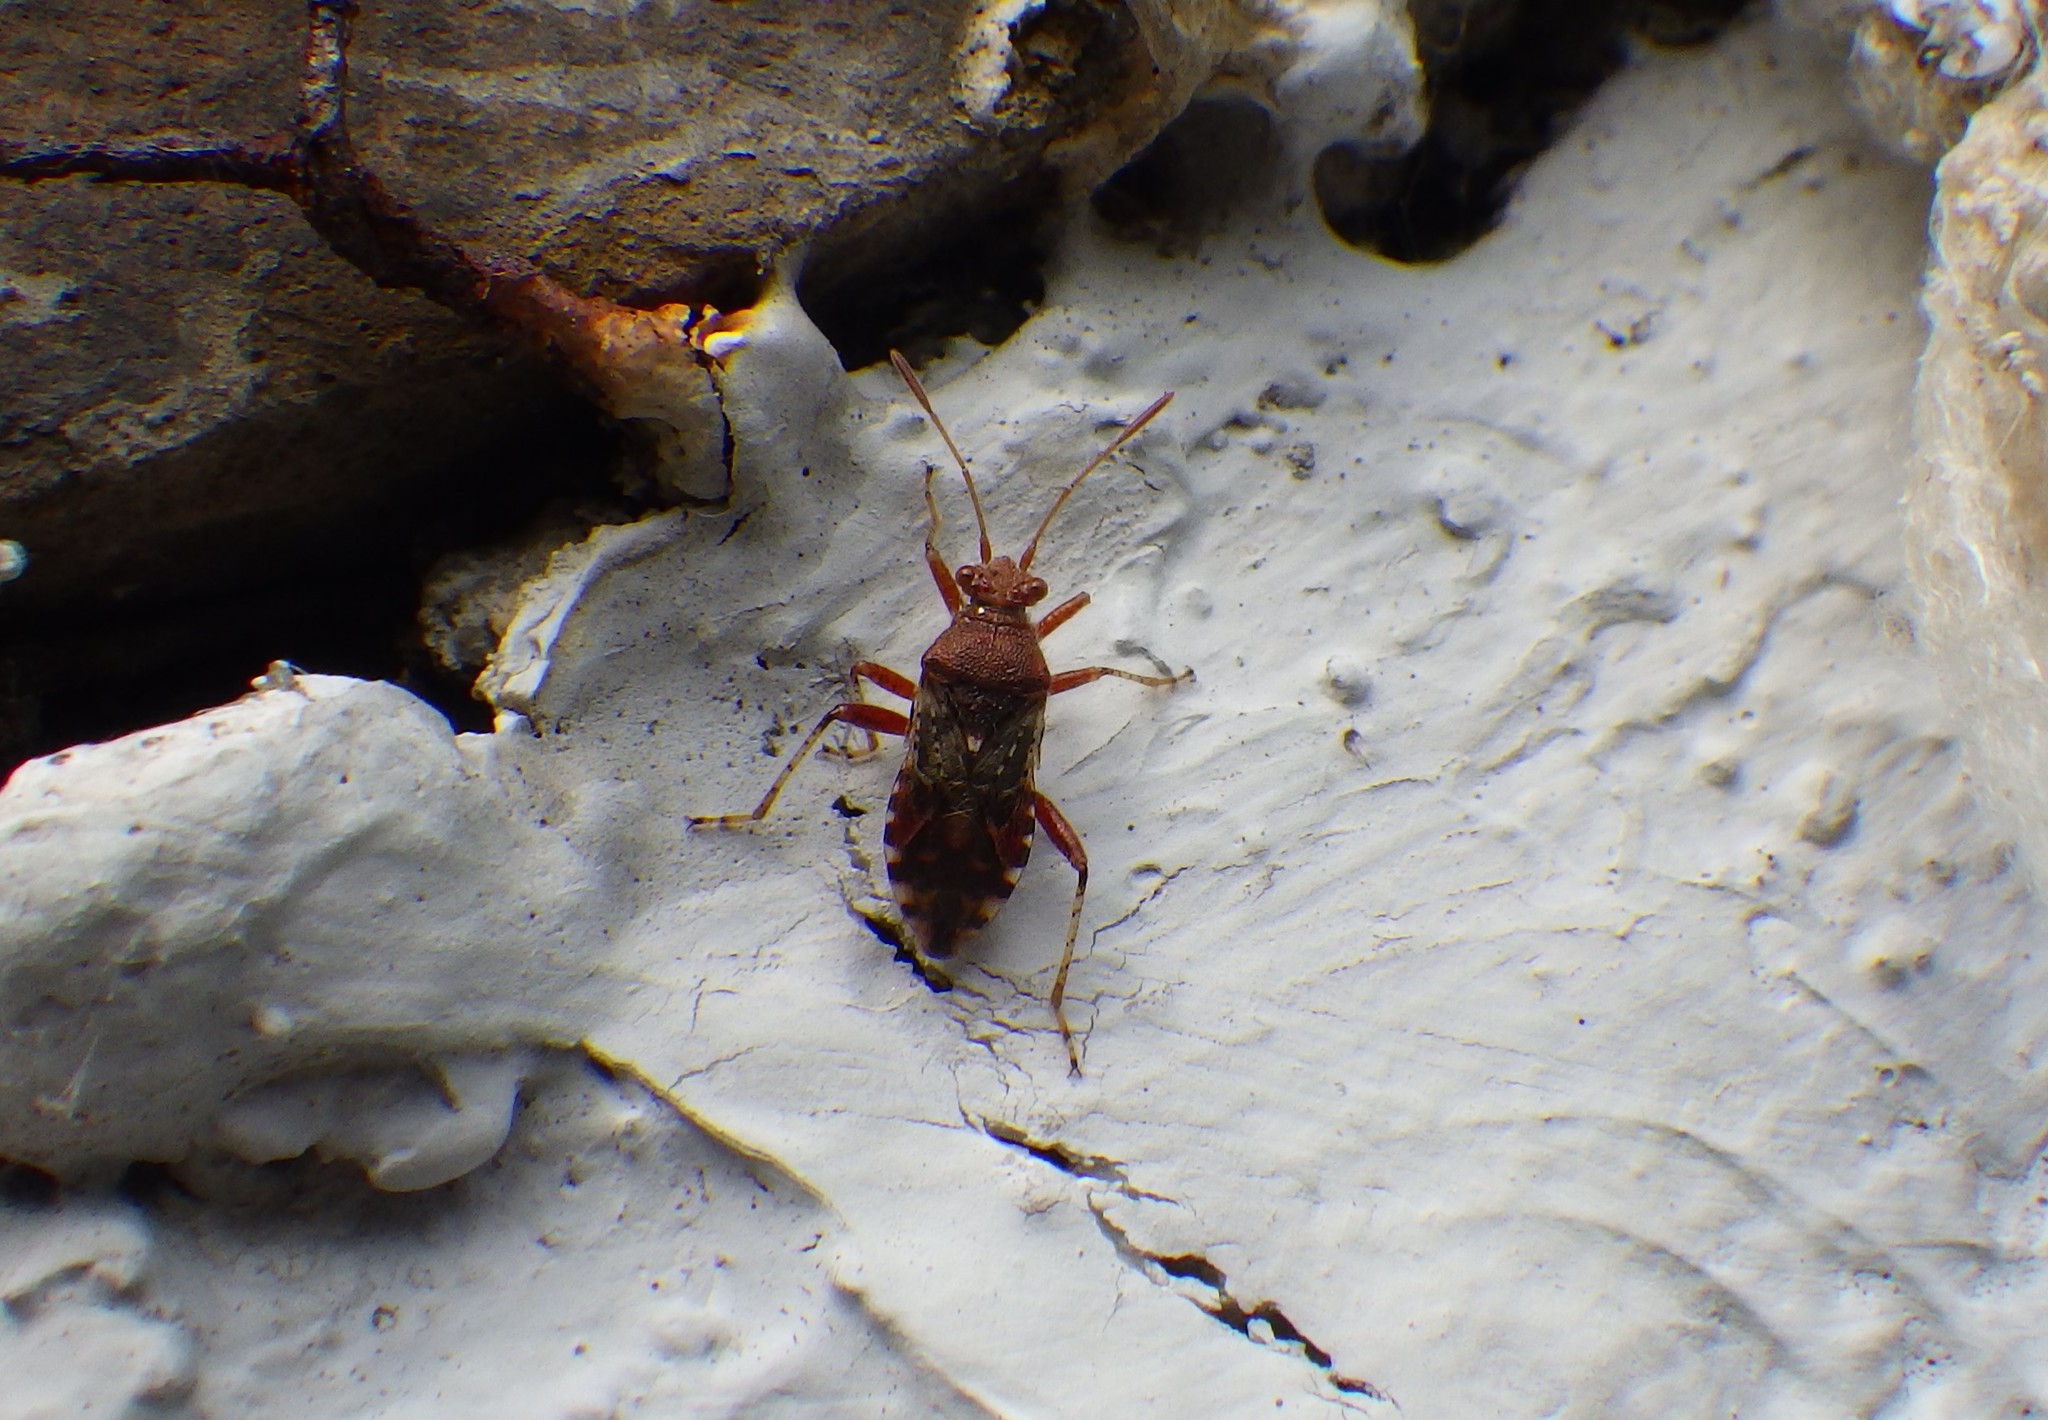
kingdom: Animalia
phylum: Arthropoda
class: Insecta
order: Hemiptera
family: Rhopalidae
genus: Rhopalus
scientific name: Rhopalus subrufus
